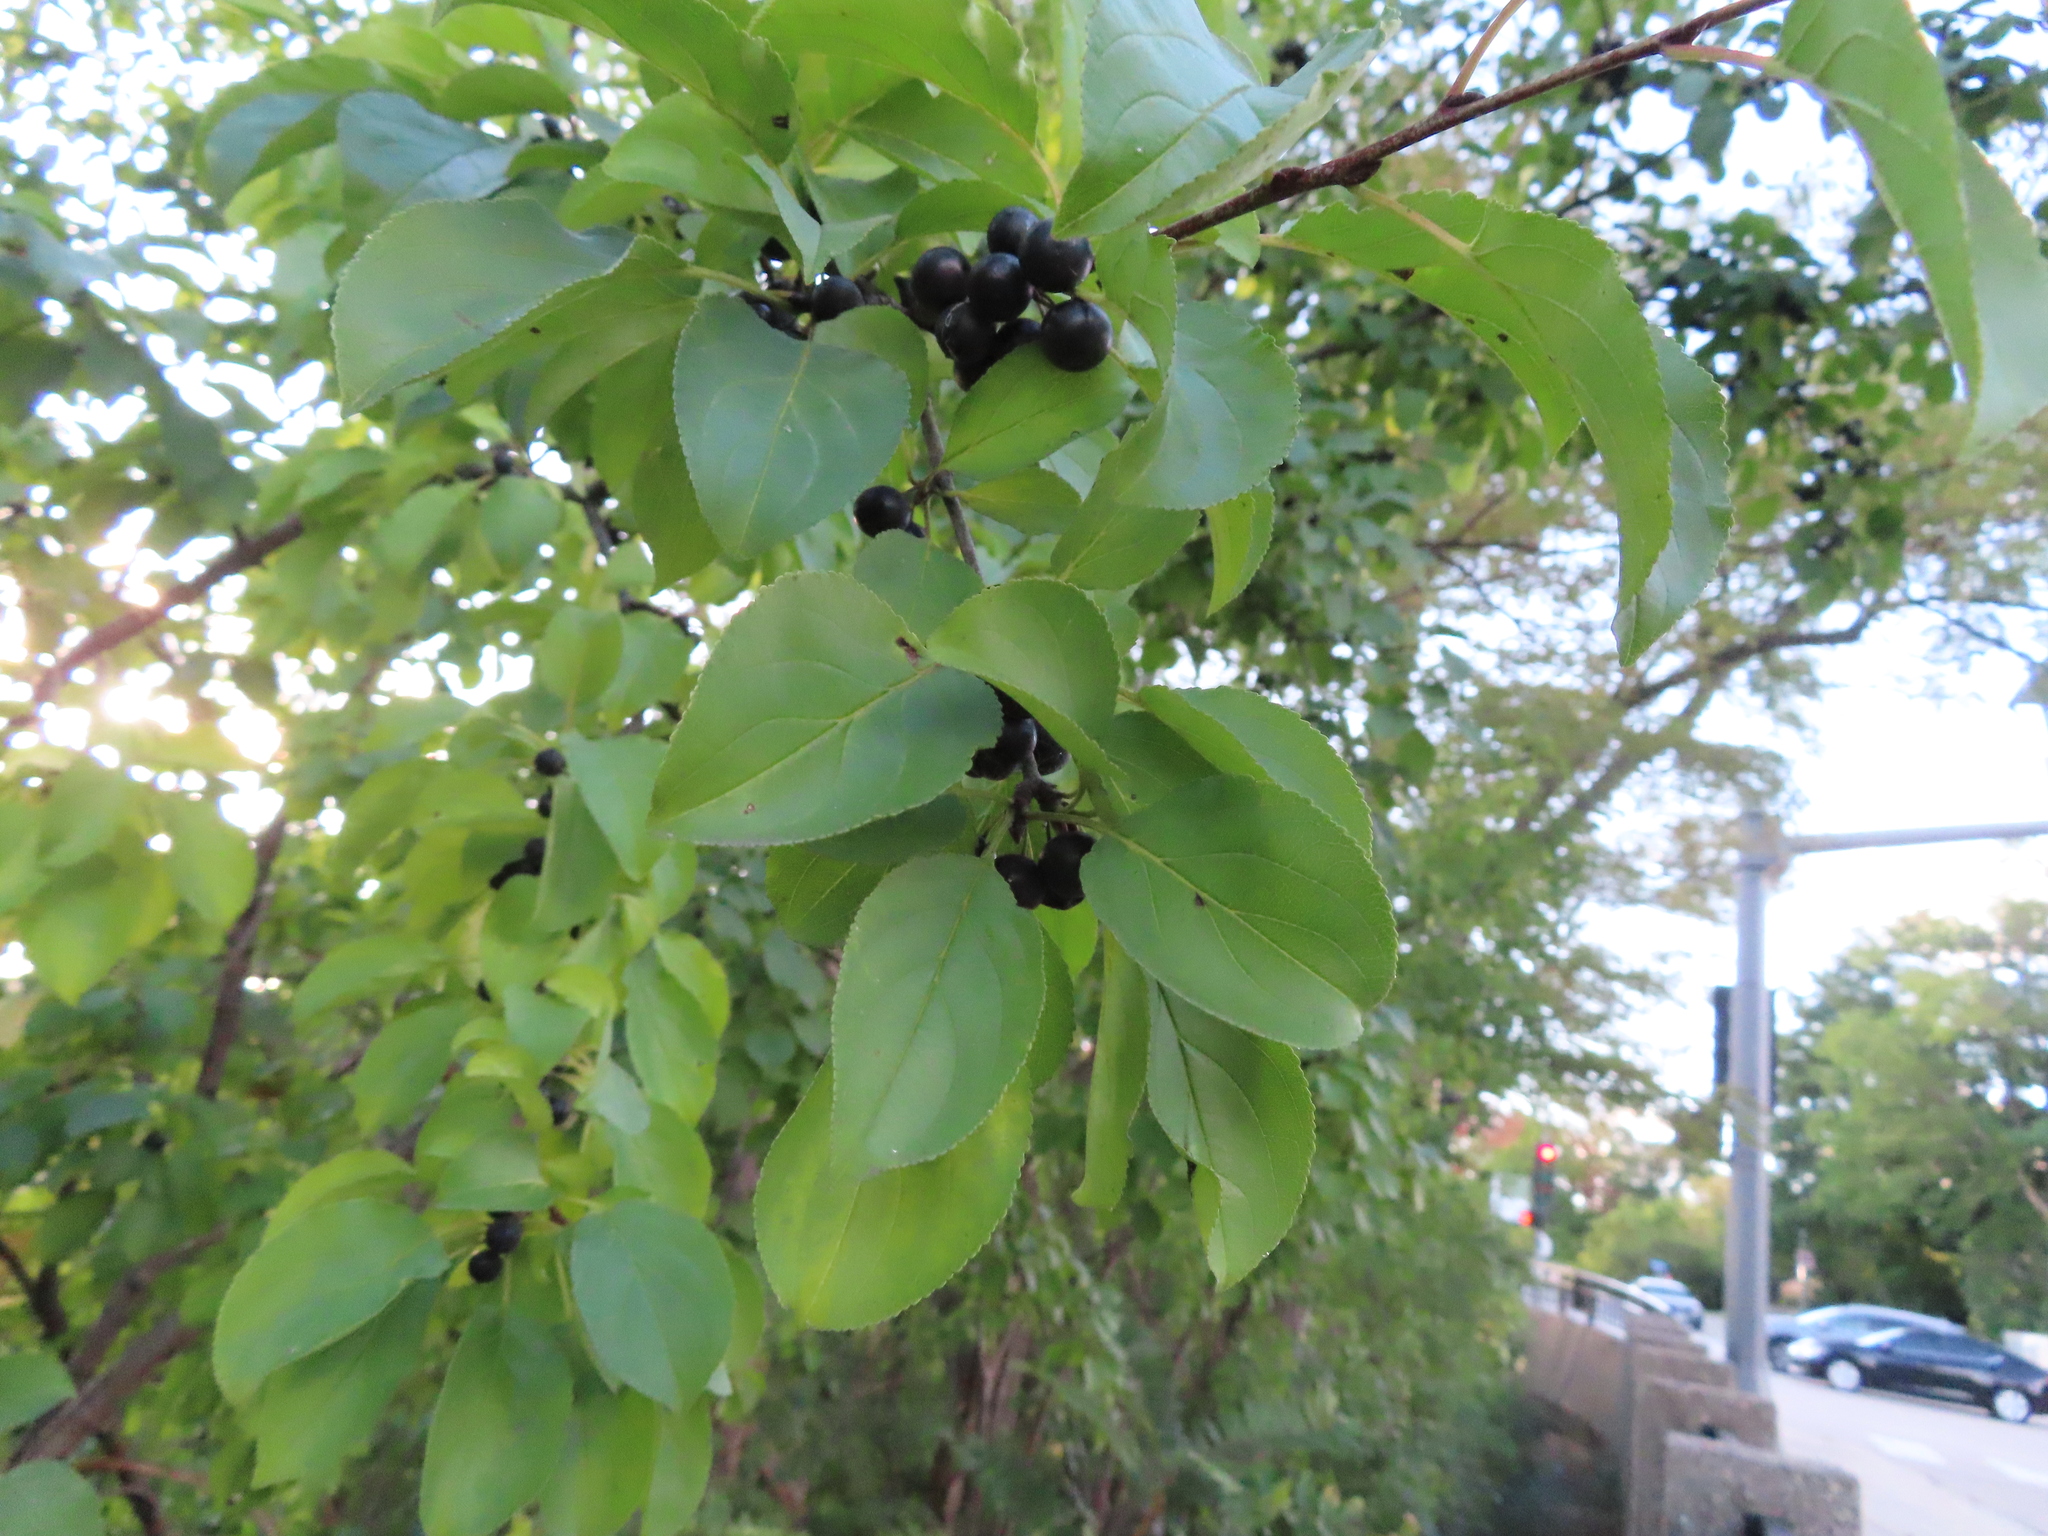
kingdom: Plantae
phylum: Tracheophyta
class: Magnoliopsida
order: Rosales
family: Rhamnaceae
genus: Rhamnus
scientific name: Rhamnus cathartica
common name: Common buckthorn
